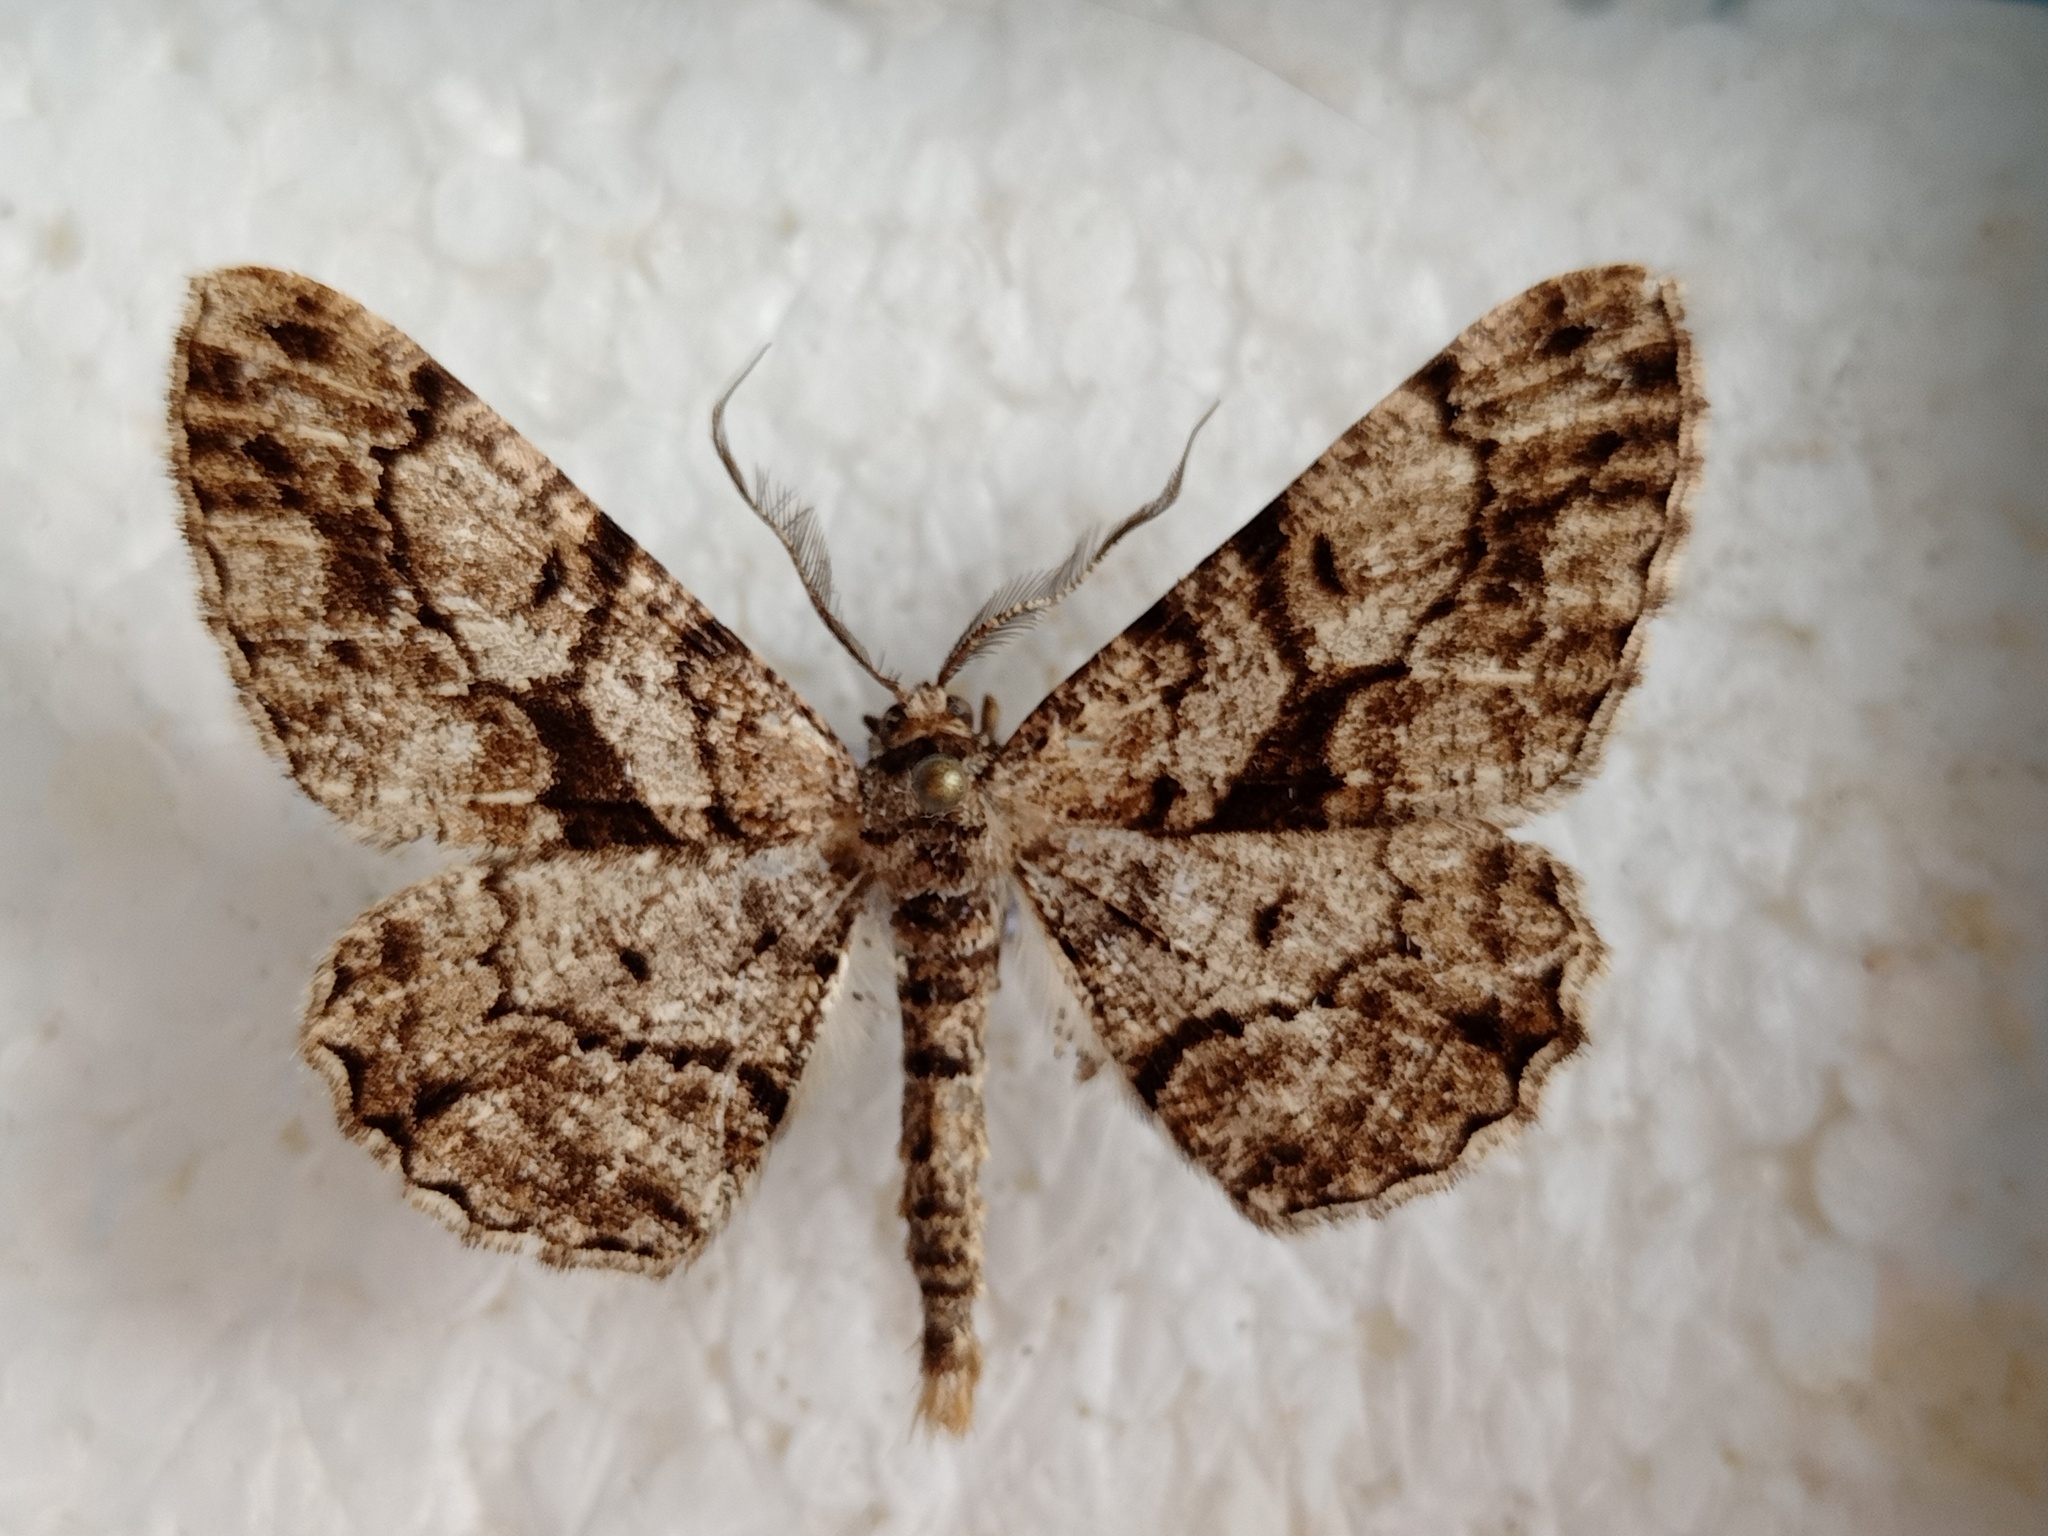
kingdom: Animalia
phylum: Arthropoda
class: Insecta
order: Lepidoptera
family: Geometridae
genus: Peribatodes
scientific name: Peribatodes umbraria
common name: Olive-tree beauty
